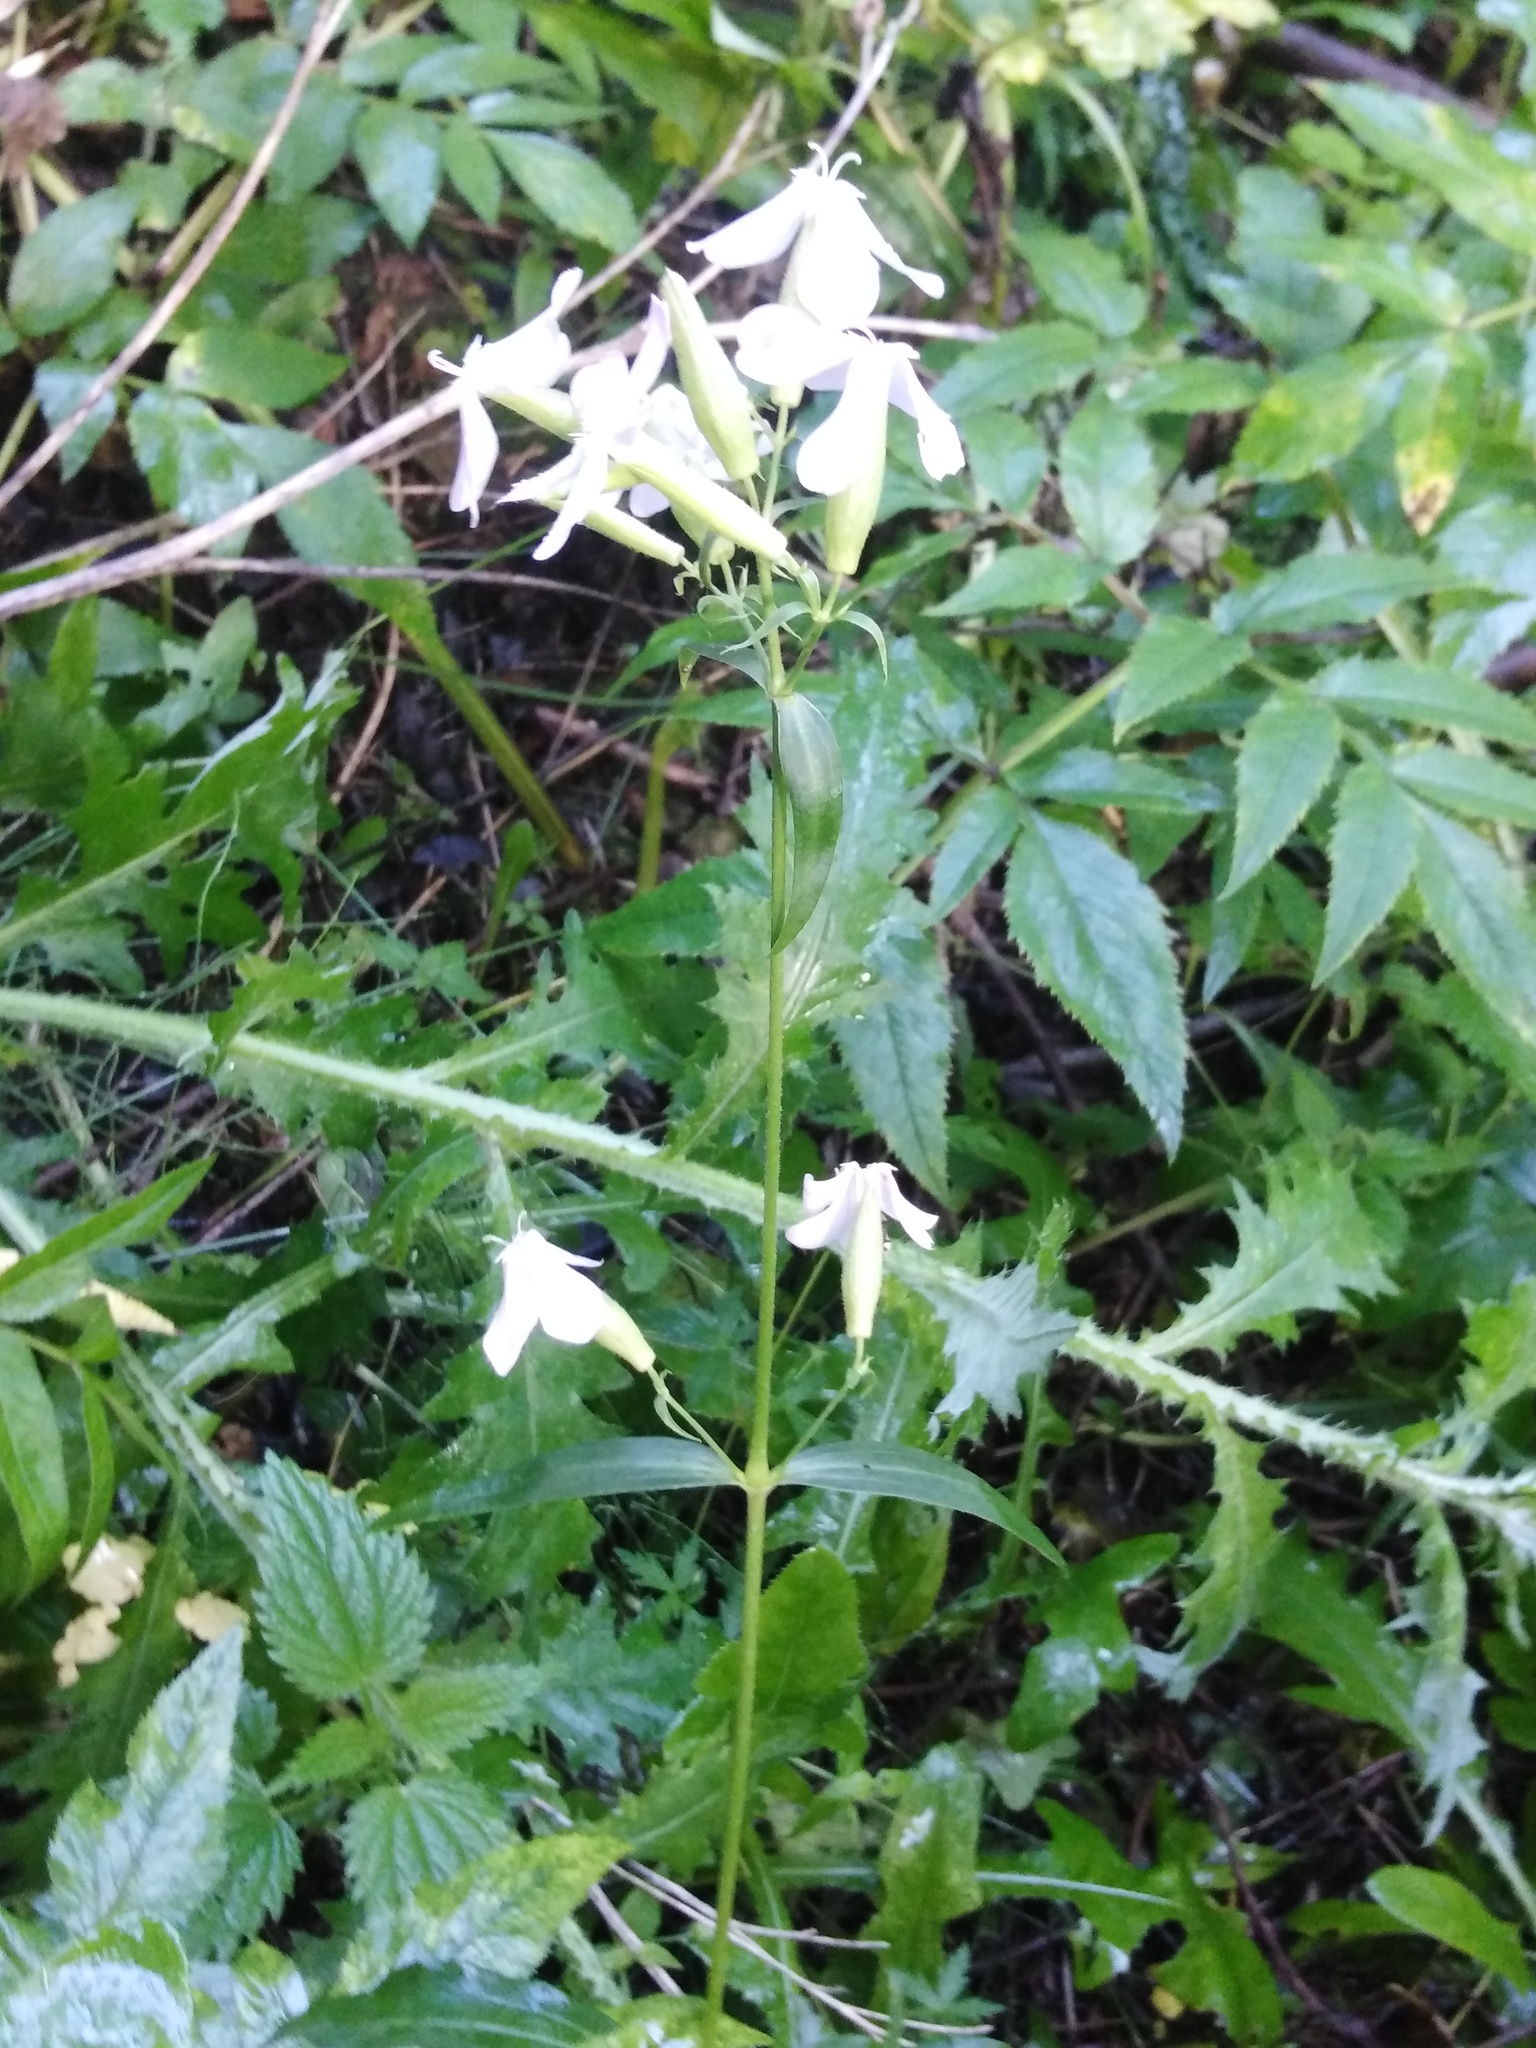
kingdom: Plantae
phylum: Tracheophyta
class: Magnoliopsida
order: Caryophyllales
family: Caryophyllaceae
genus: Saponaria
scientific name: Saponaria officinalis
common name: Soapwort
